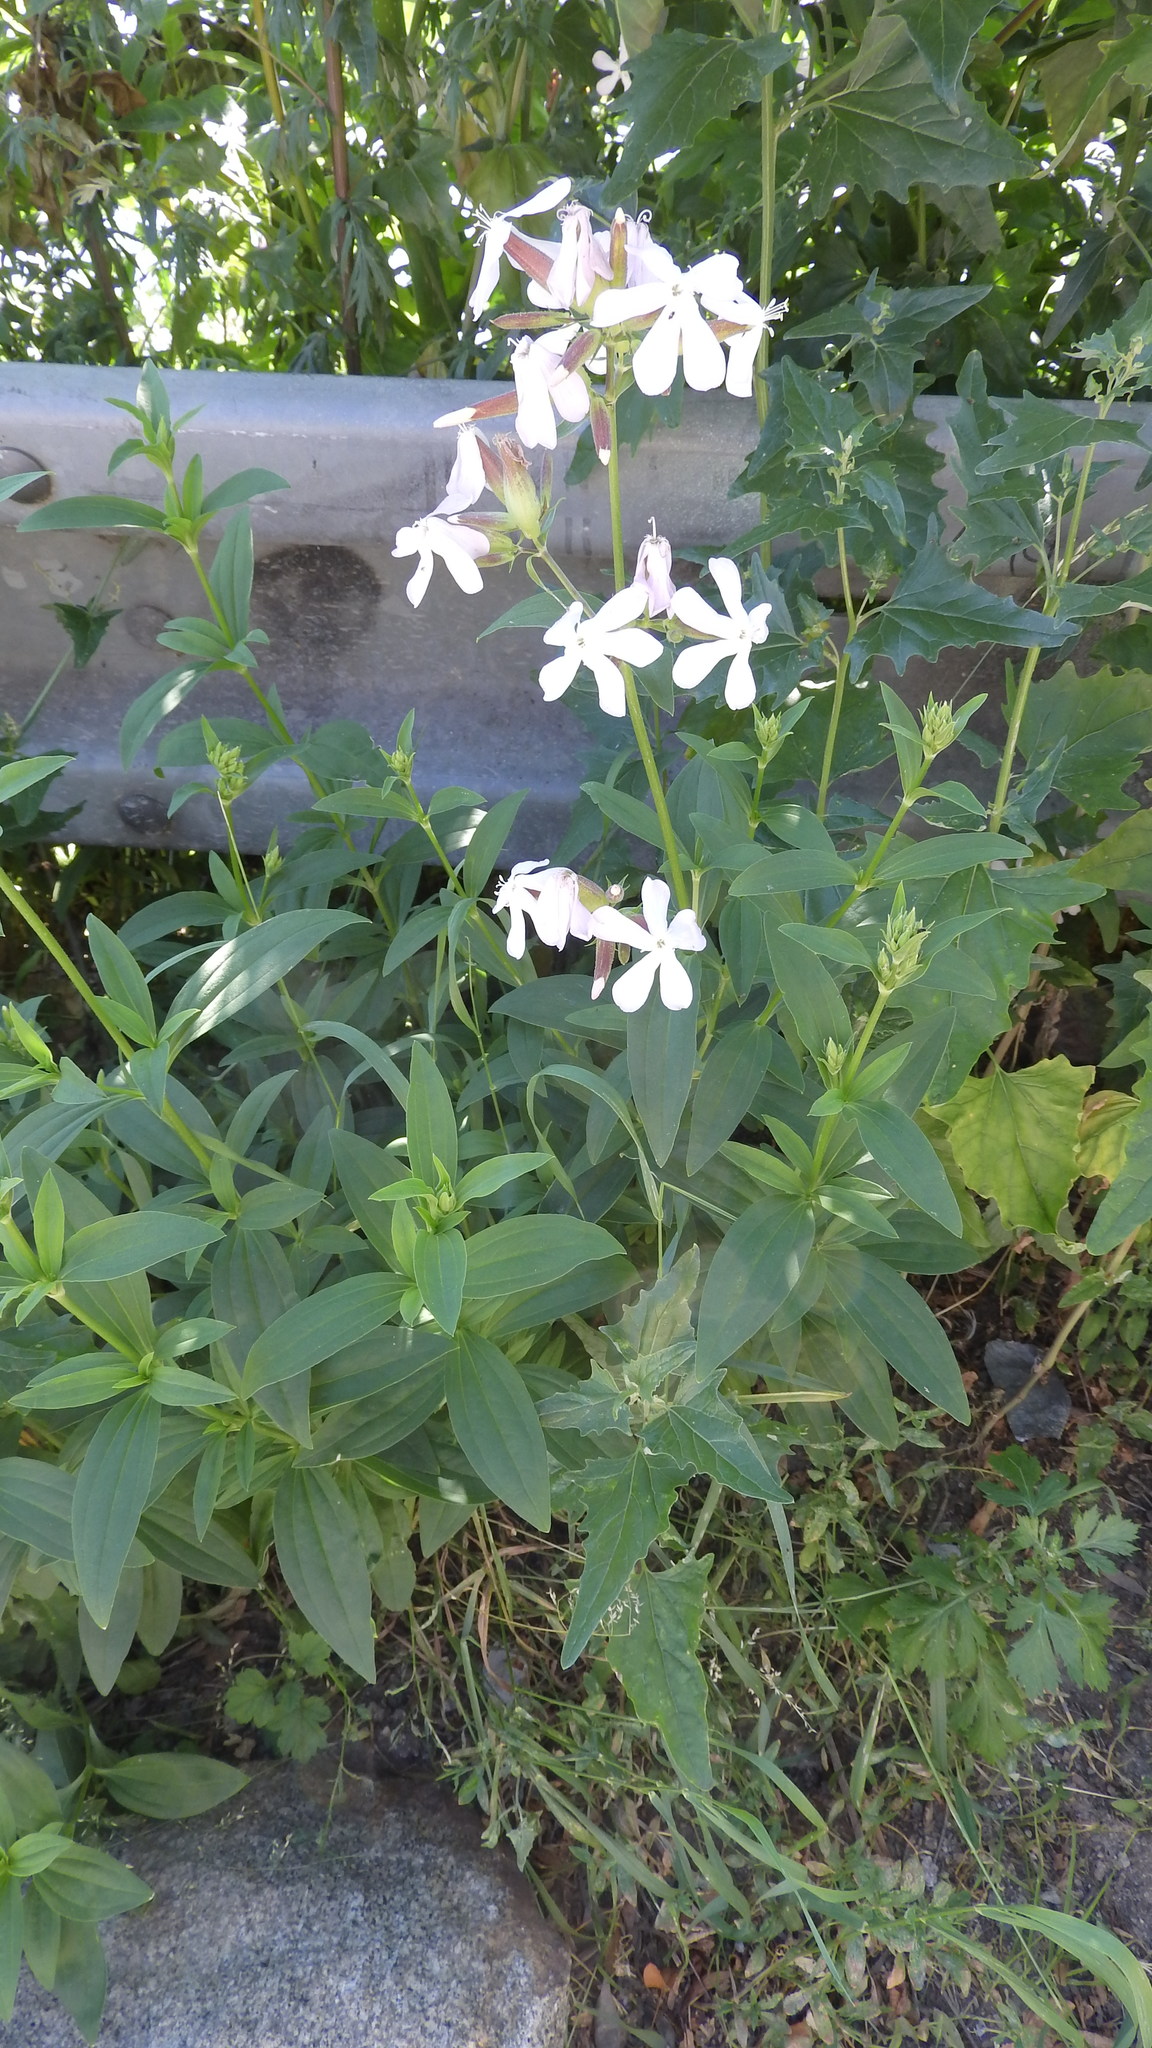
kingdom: Plantae
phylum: Tracheophyta
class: Magnoliopsida
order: Caryophyllales
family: Caryophyllaceae
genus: Saponaria
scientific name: Saponaria officinalis
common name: Soapwort
